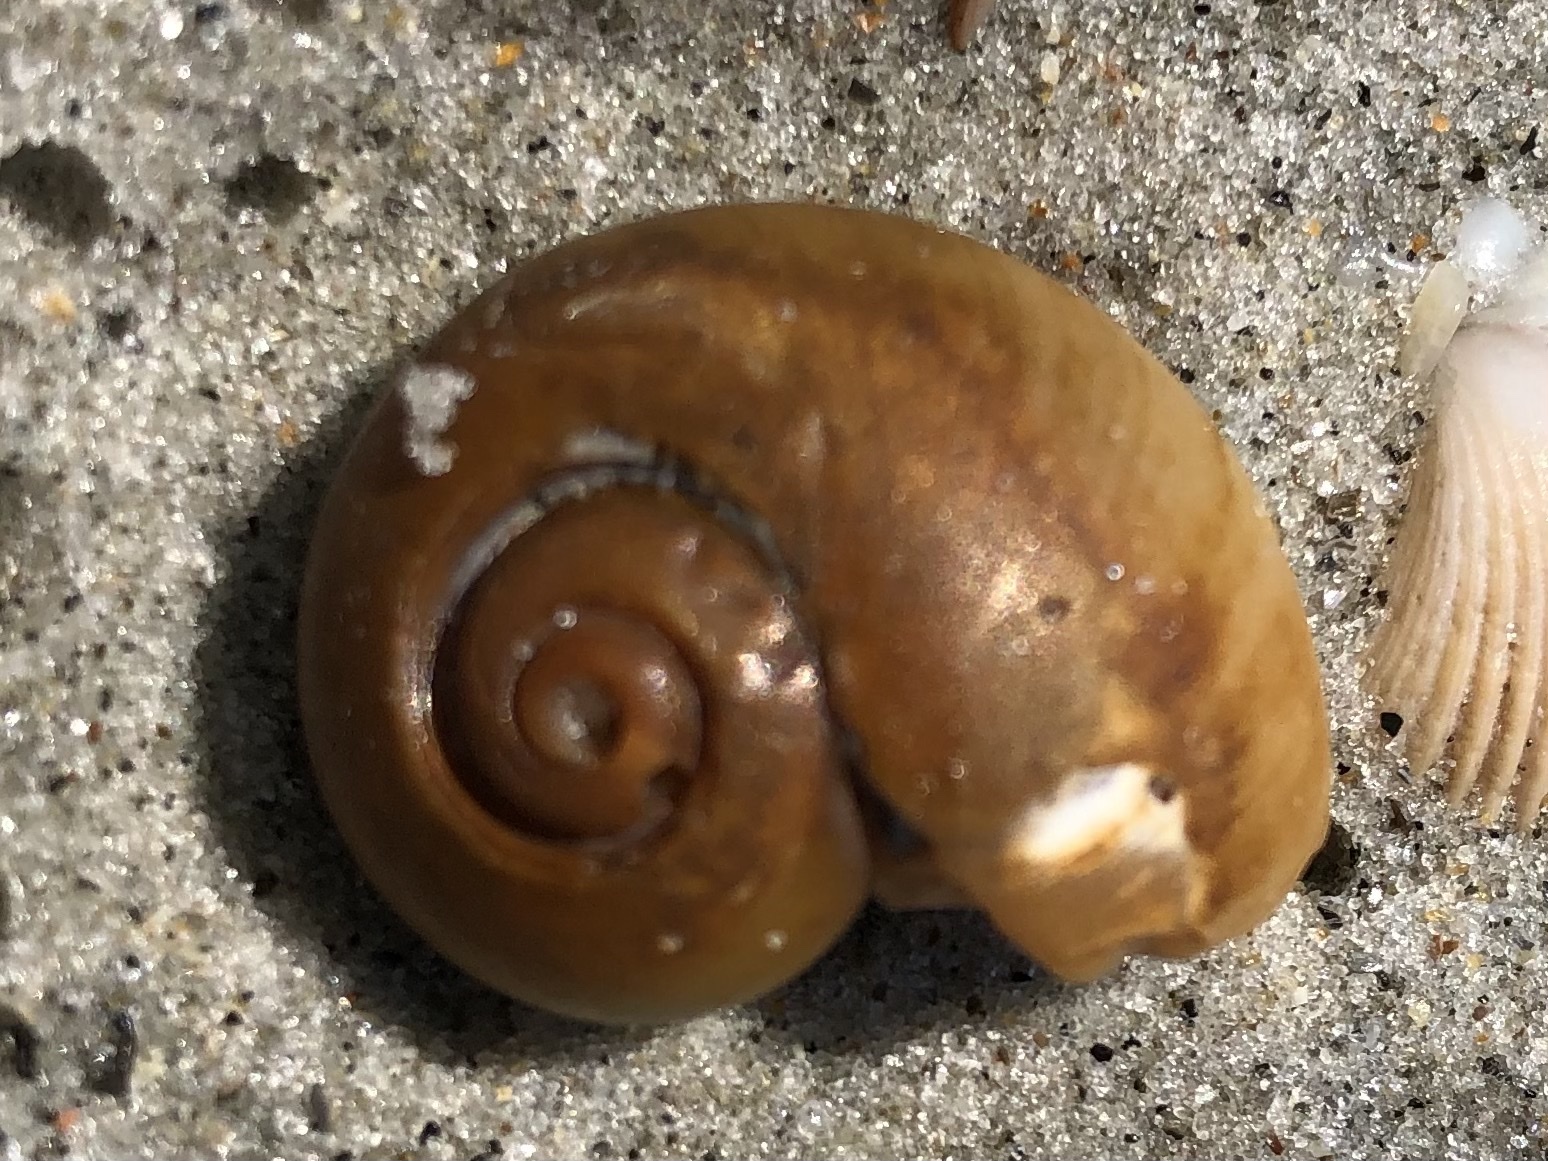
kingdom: Animalia
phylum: Mollusca
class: Gastropoda
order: Littorinimorpha
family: Naticidae
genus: Neverita
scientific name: Neverita duplicata
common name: Lobed moonsnail
